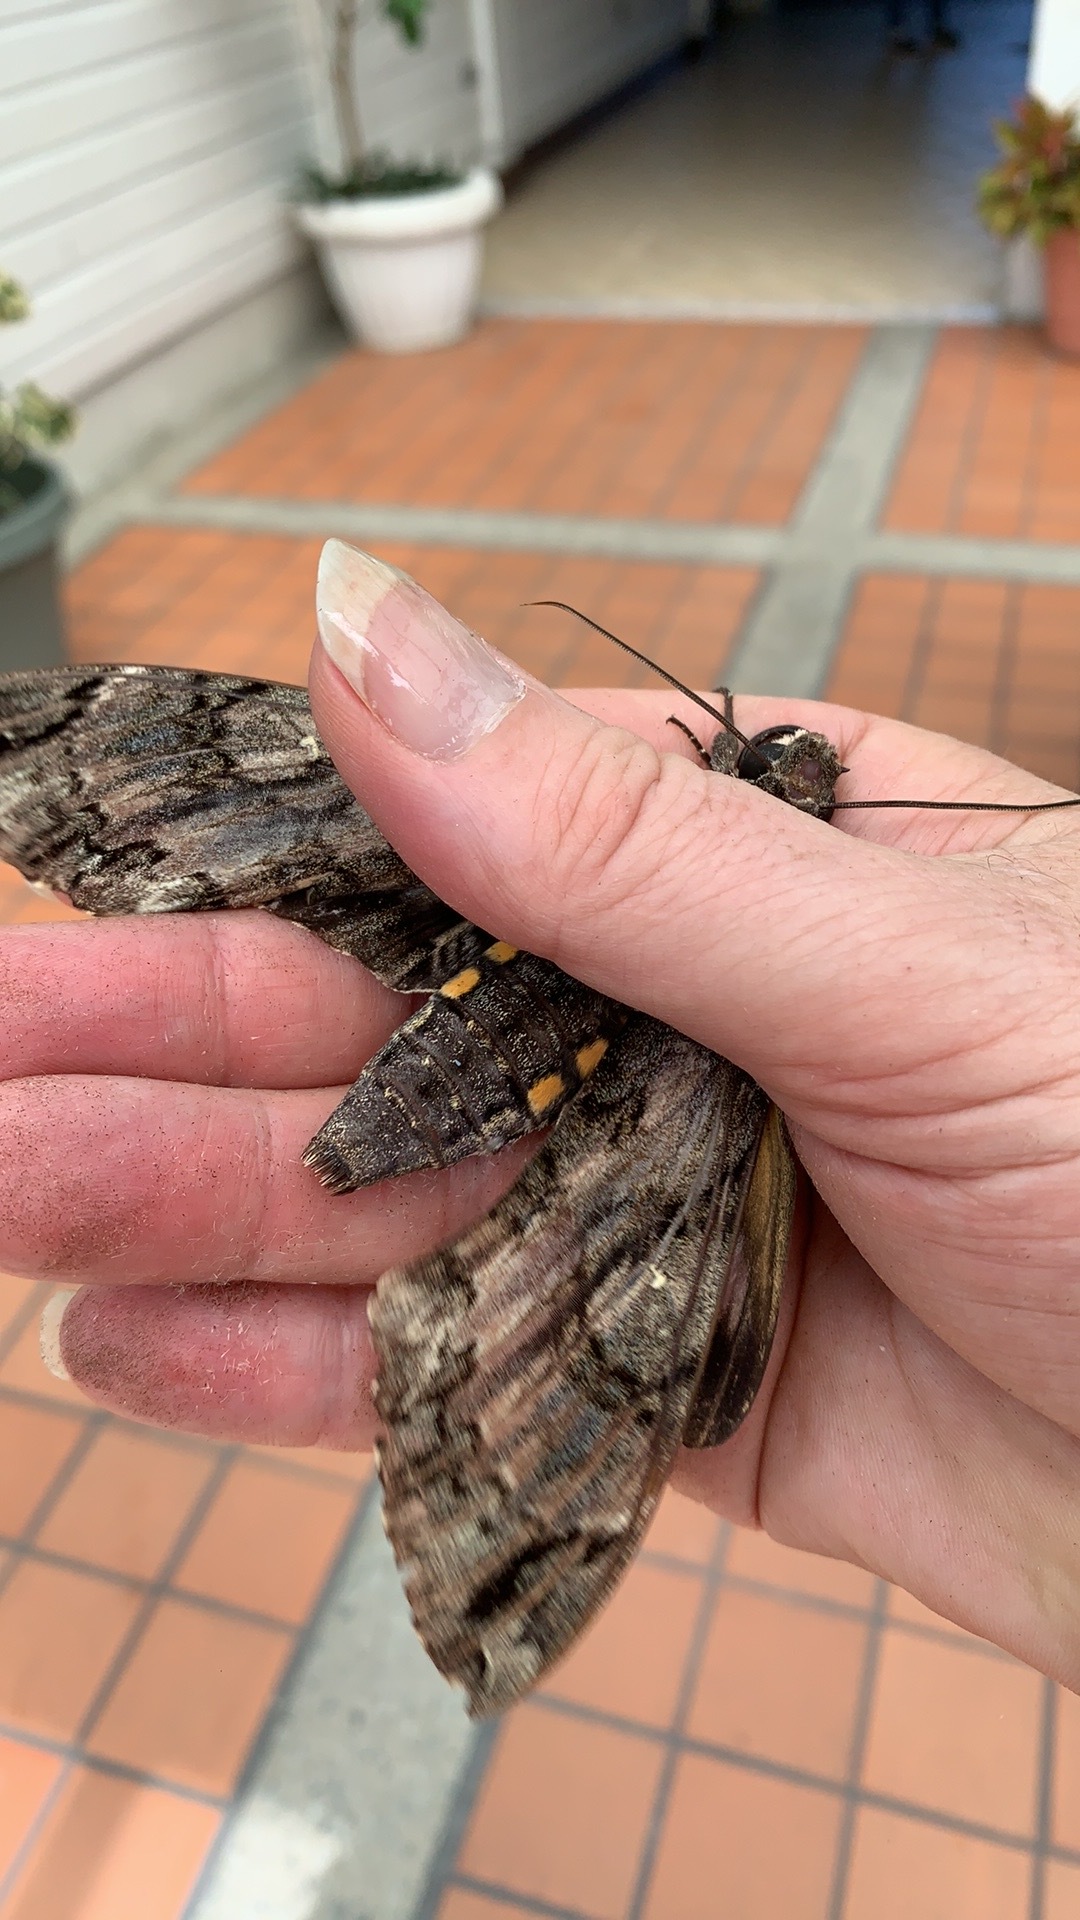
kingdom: Animalia
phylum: Arthropoda
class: Insecta
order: Lepidoptera
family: Sphingidae
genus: Cocytius
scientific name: Cocytius antaeus
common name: Giant sphinx
